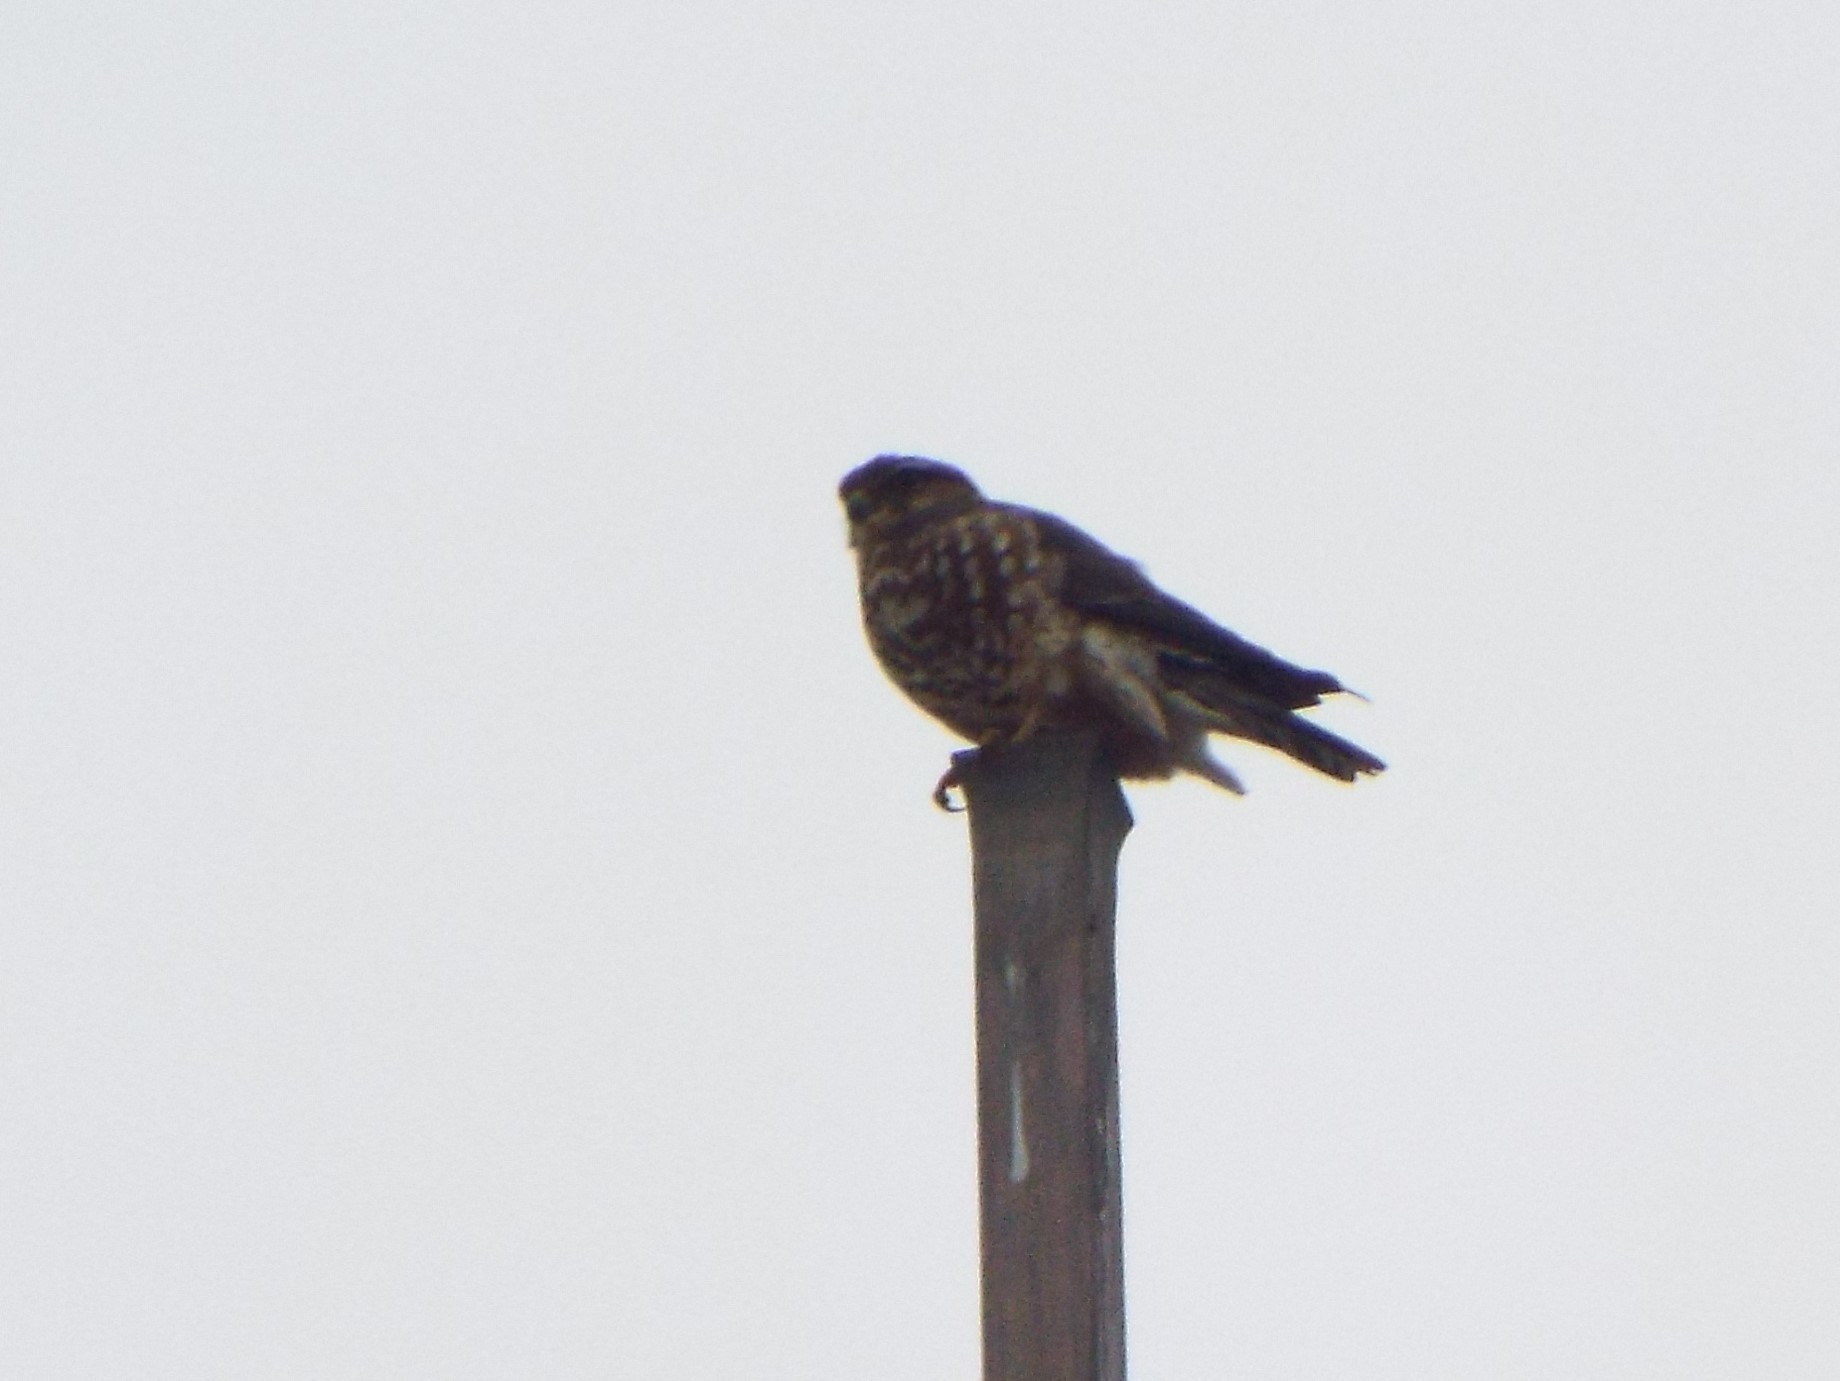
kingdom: Animalia
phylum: Chordata
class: Aves
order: Falconiformes
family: Falconidae
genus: Falco
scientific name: Falco columbarius
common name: Merlin
